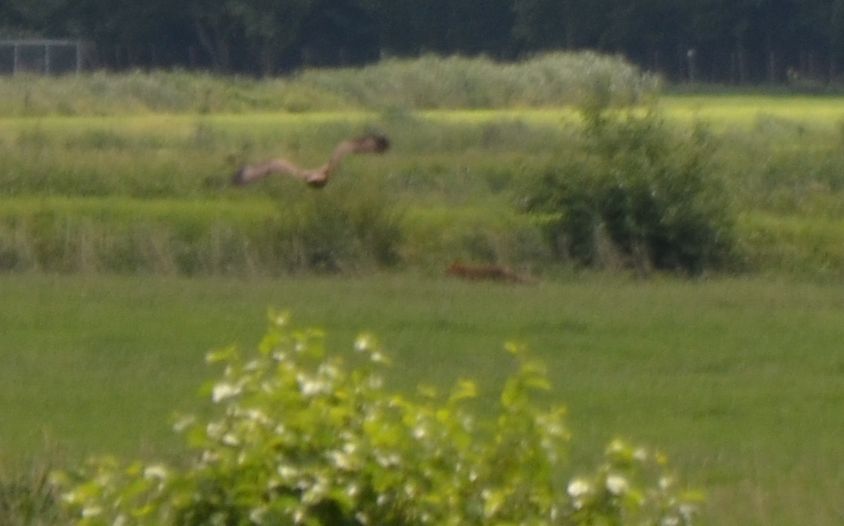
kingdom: Animalia
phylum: Chordata
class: Mammalia
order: Carnivora
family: Canidae
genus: Vulpes
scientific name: Vulpes vulpes
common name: Red fox
